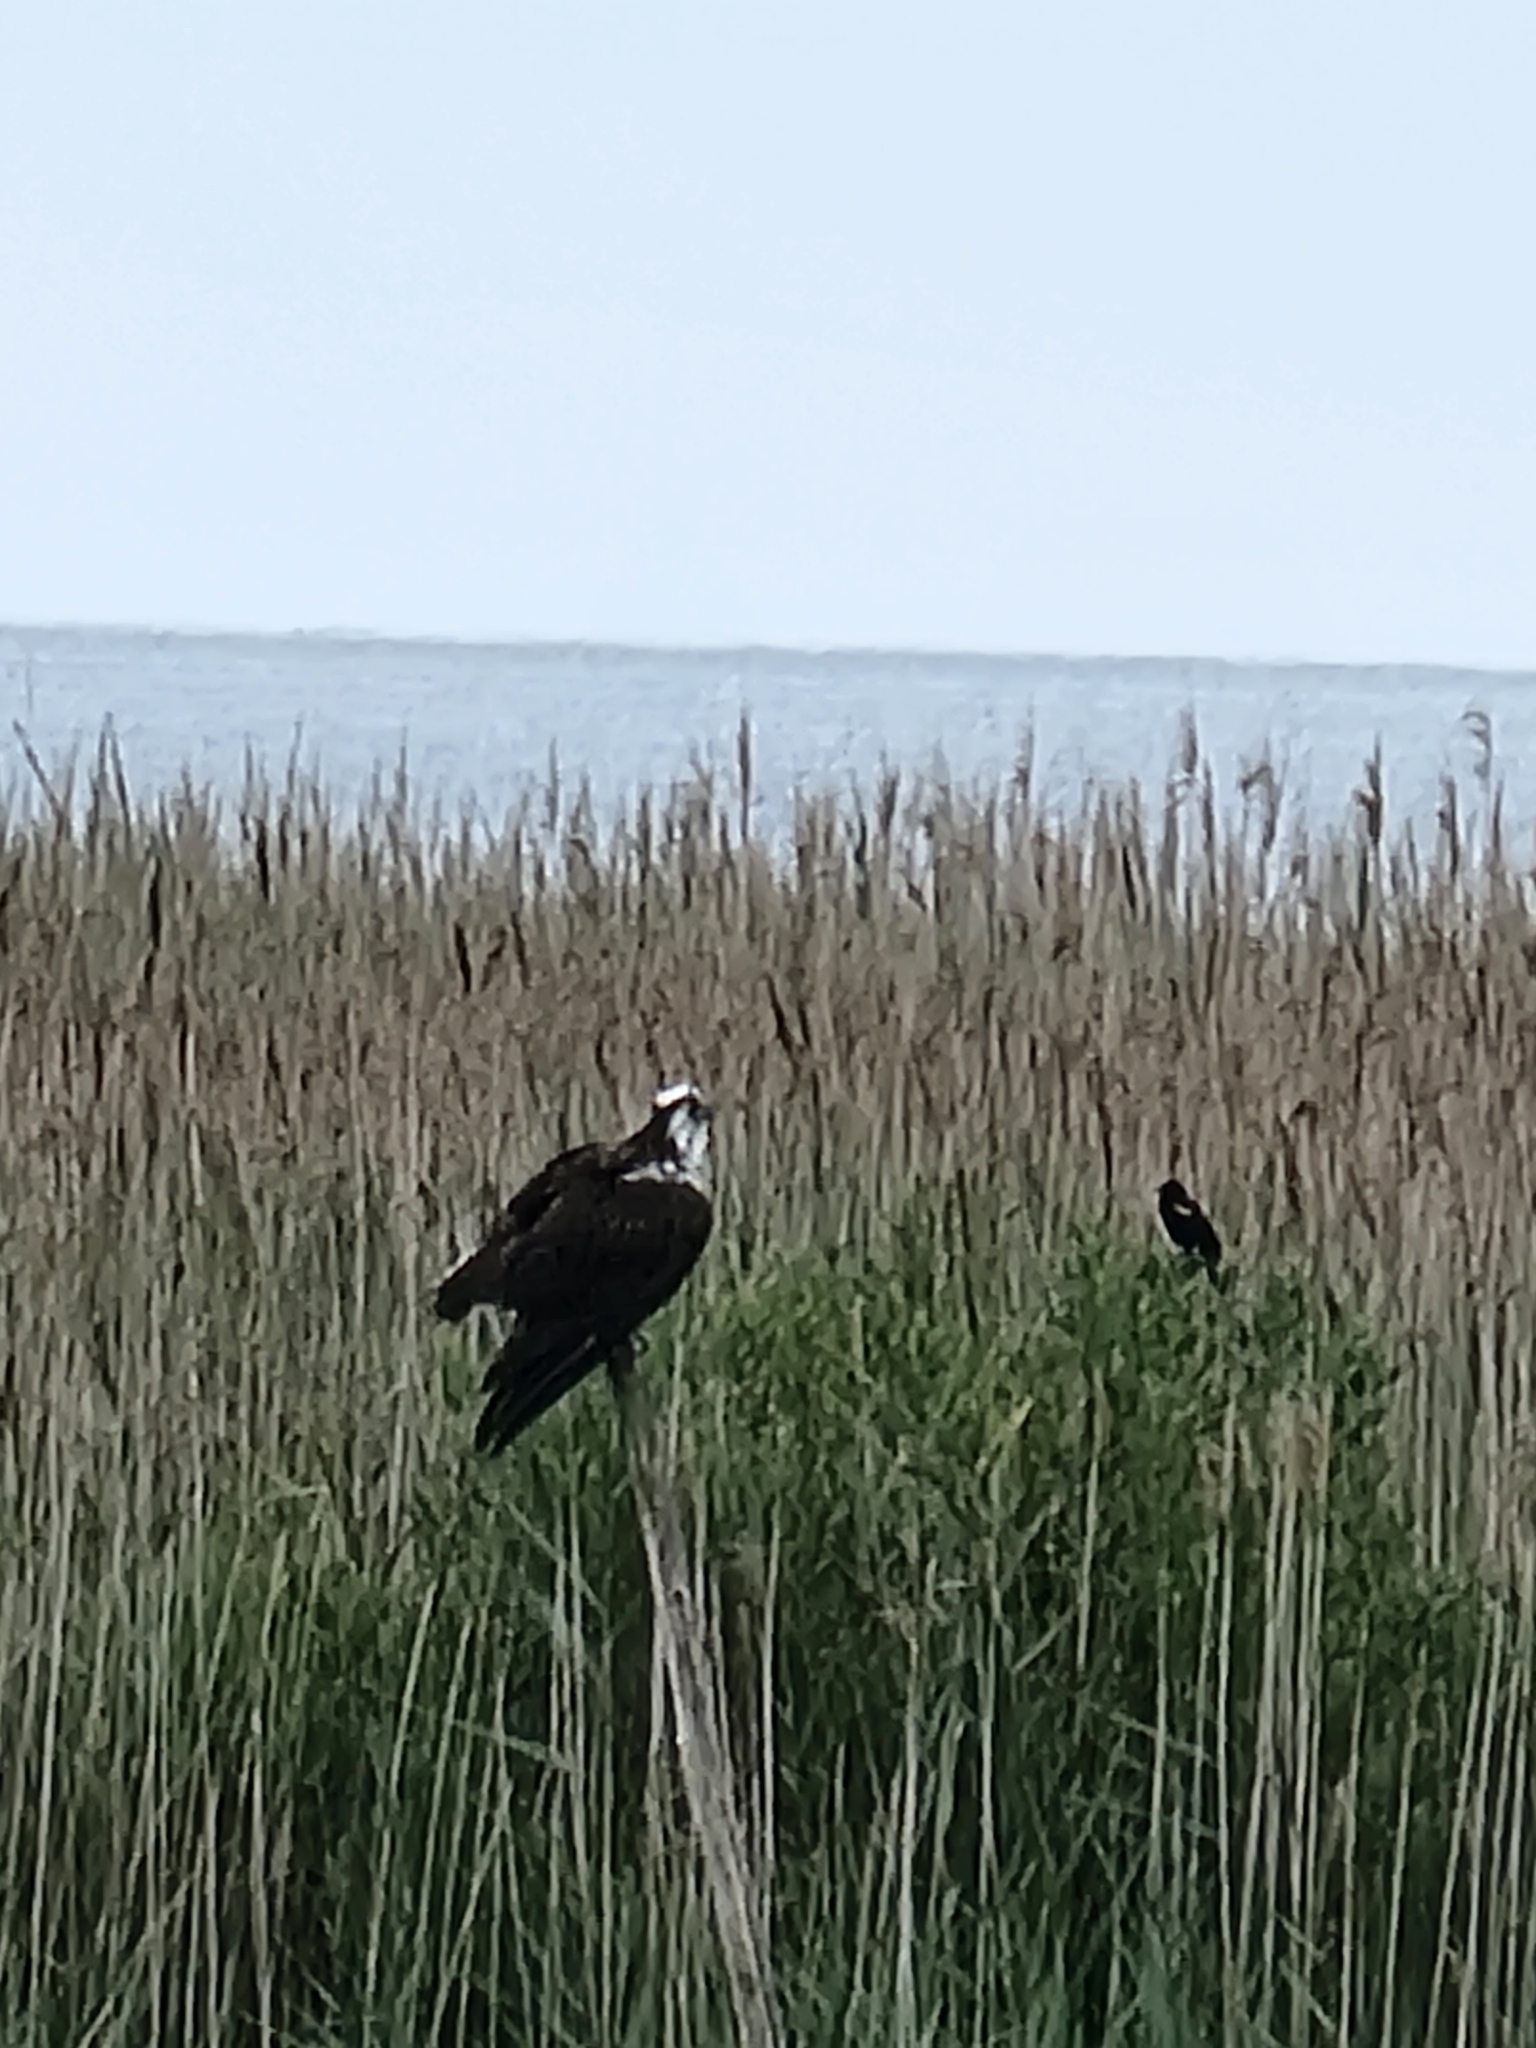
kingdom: Animalia
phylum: Chordata
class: Aves
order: Accipitriformes
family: Pandionidae
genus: Pandion
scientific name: Pandion haliaetus
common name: Osprey
